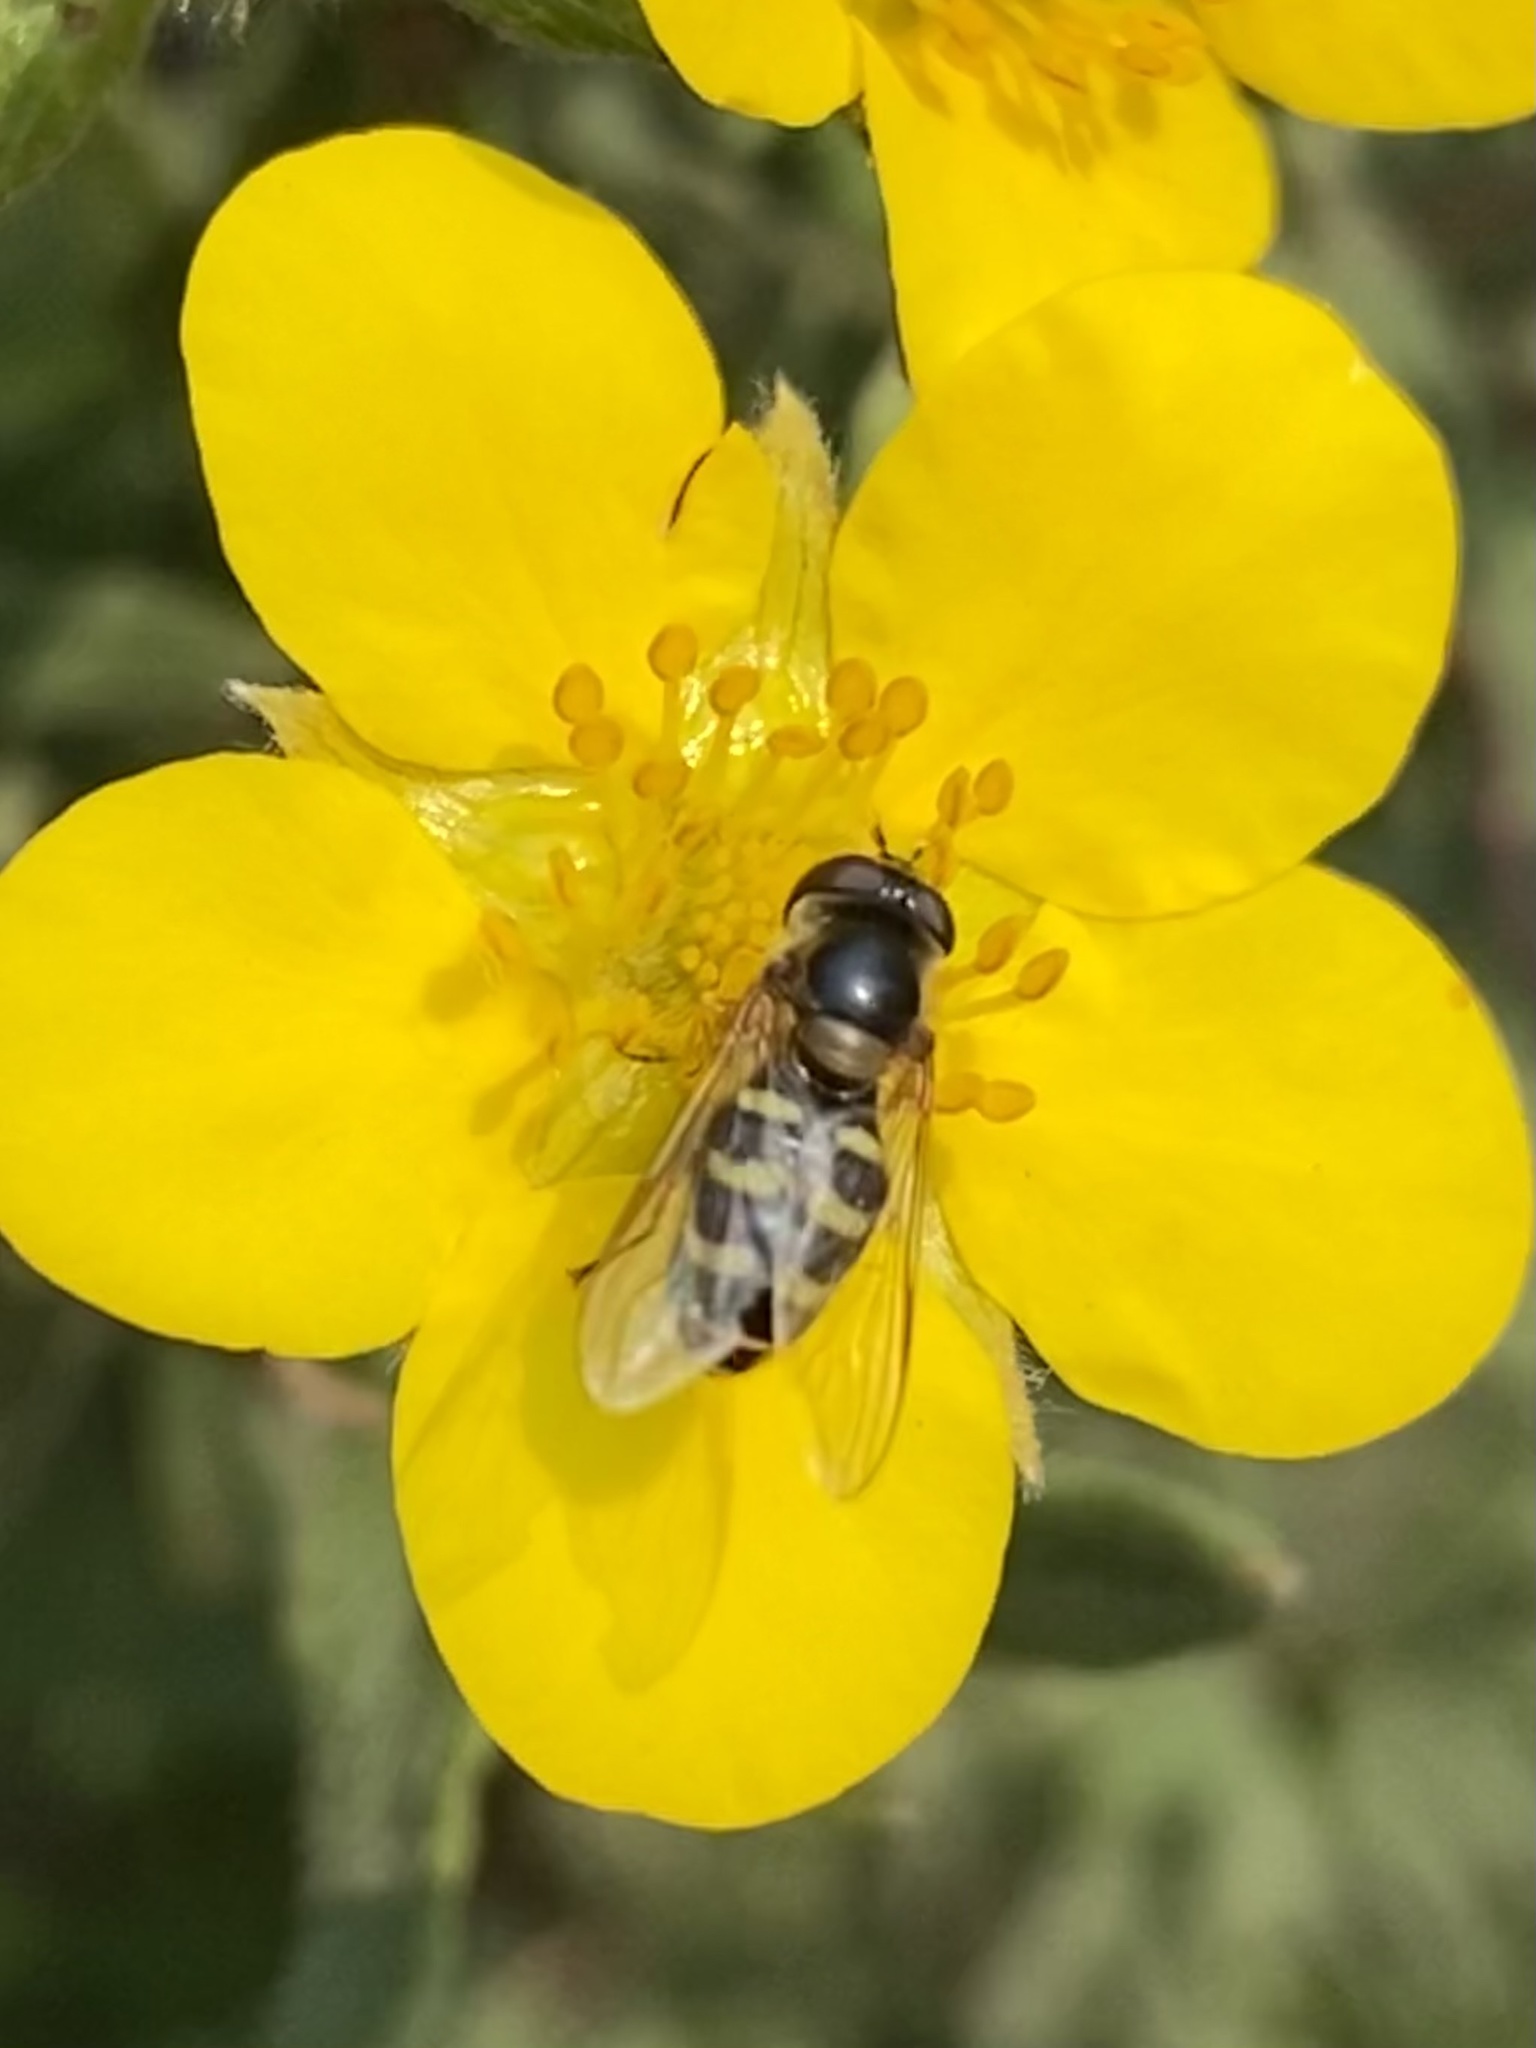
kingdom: Animalia
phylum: Arthropoda
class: Insecta
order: Diptera
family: Syrphidae
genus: Lapposyrphus
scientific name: Lapposyrphus lapponicus
